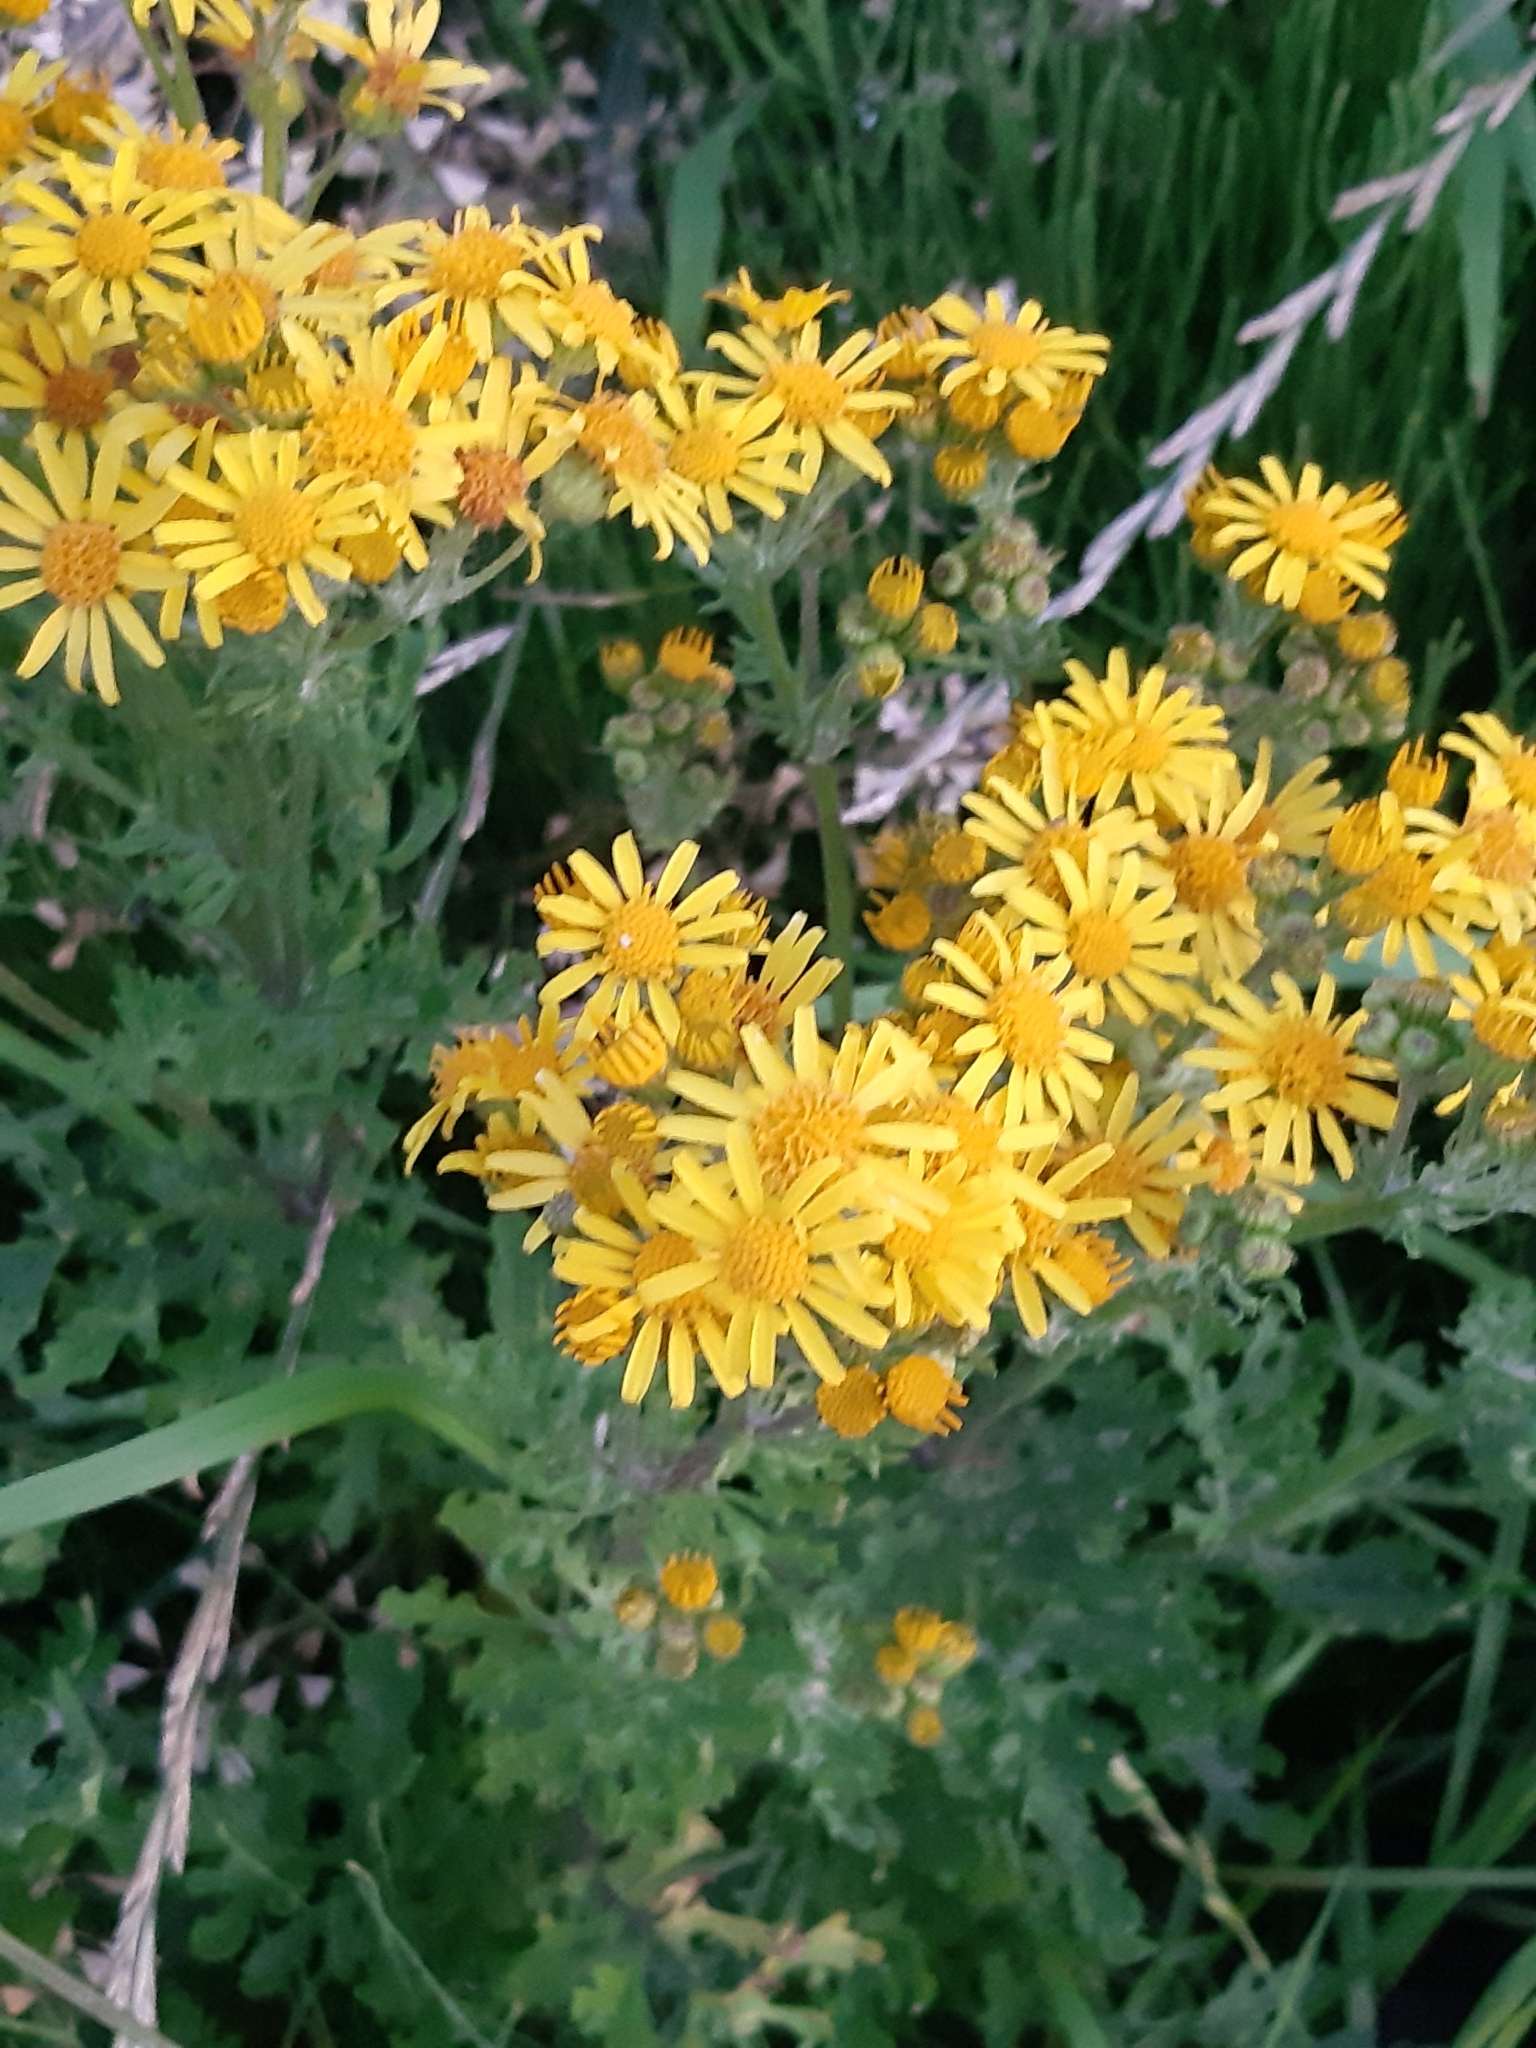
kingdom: Plantae
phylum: Tracheophyta
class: Magnoliopsida
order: Asterales
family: Asteraceae
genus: Jacobaea
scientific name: Jacobaea vulgaris
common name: Stinking willie
